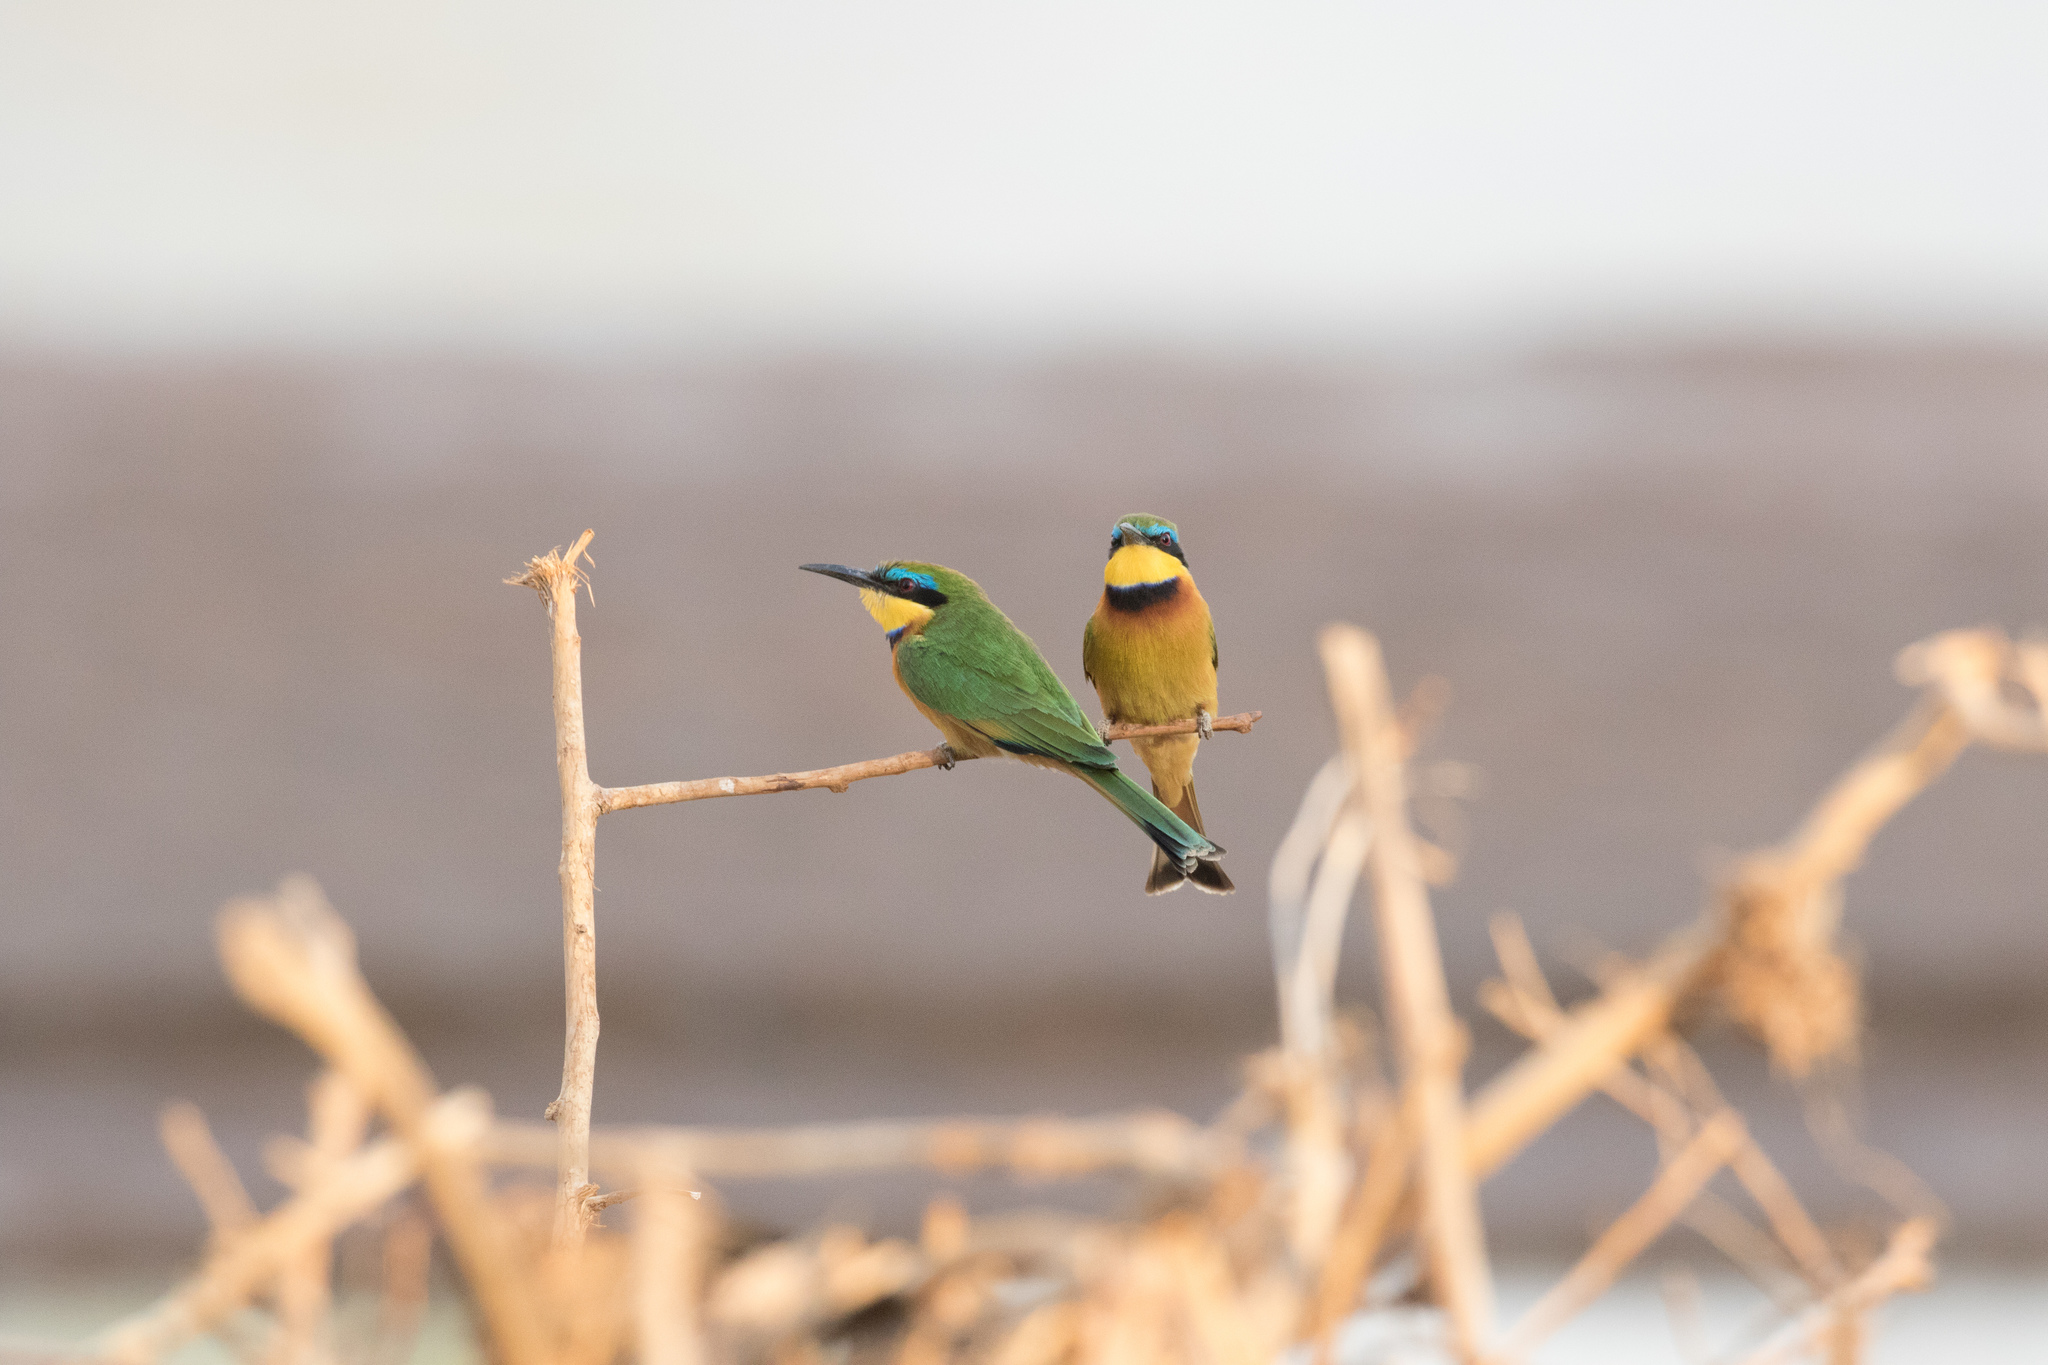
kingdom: Animalia
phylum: Chordata
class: Aves
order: Coraciiformes
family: Meropidae
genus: Merops
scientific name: Merops pusillus
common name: Little bee-eater
